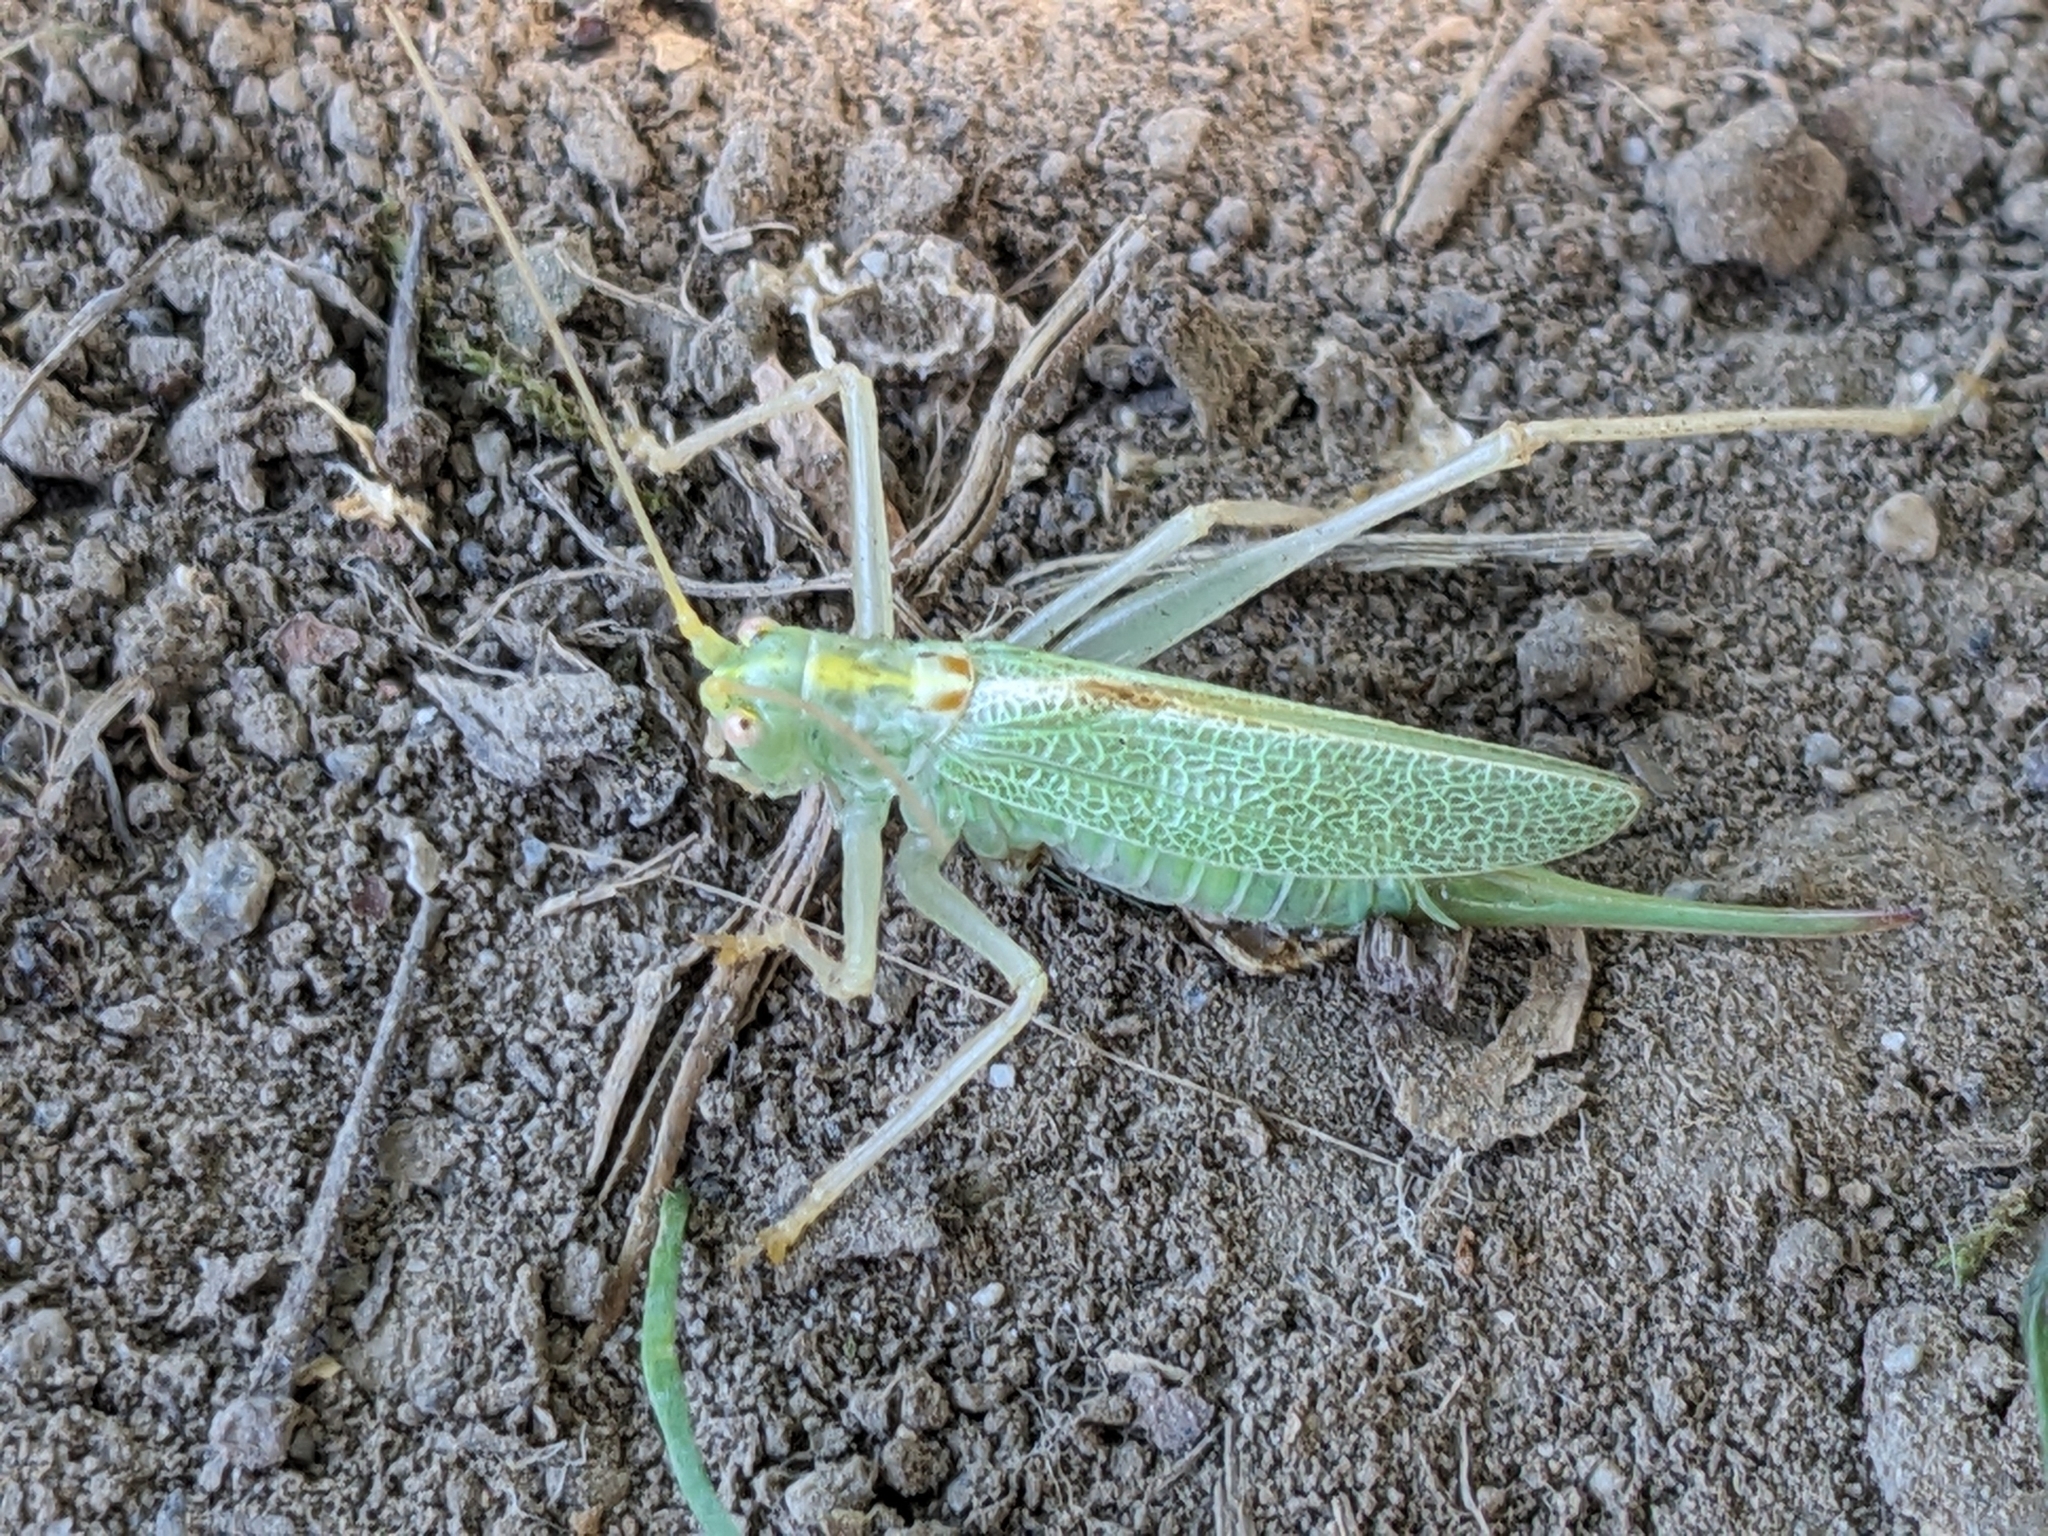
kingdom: Animalia
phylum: Arthropoda
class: Insecta
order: Orthoptera
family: Tettigoniidae
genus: Meconema
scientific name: Meconema thalassinum
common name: Oak bush-cricket
